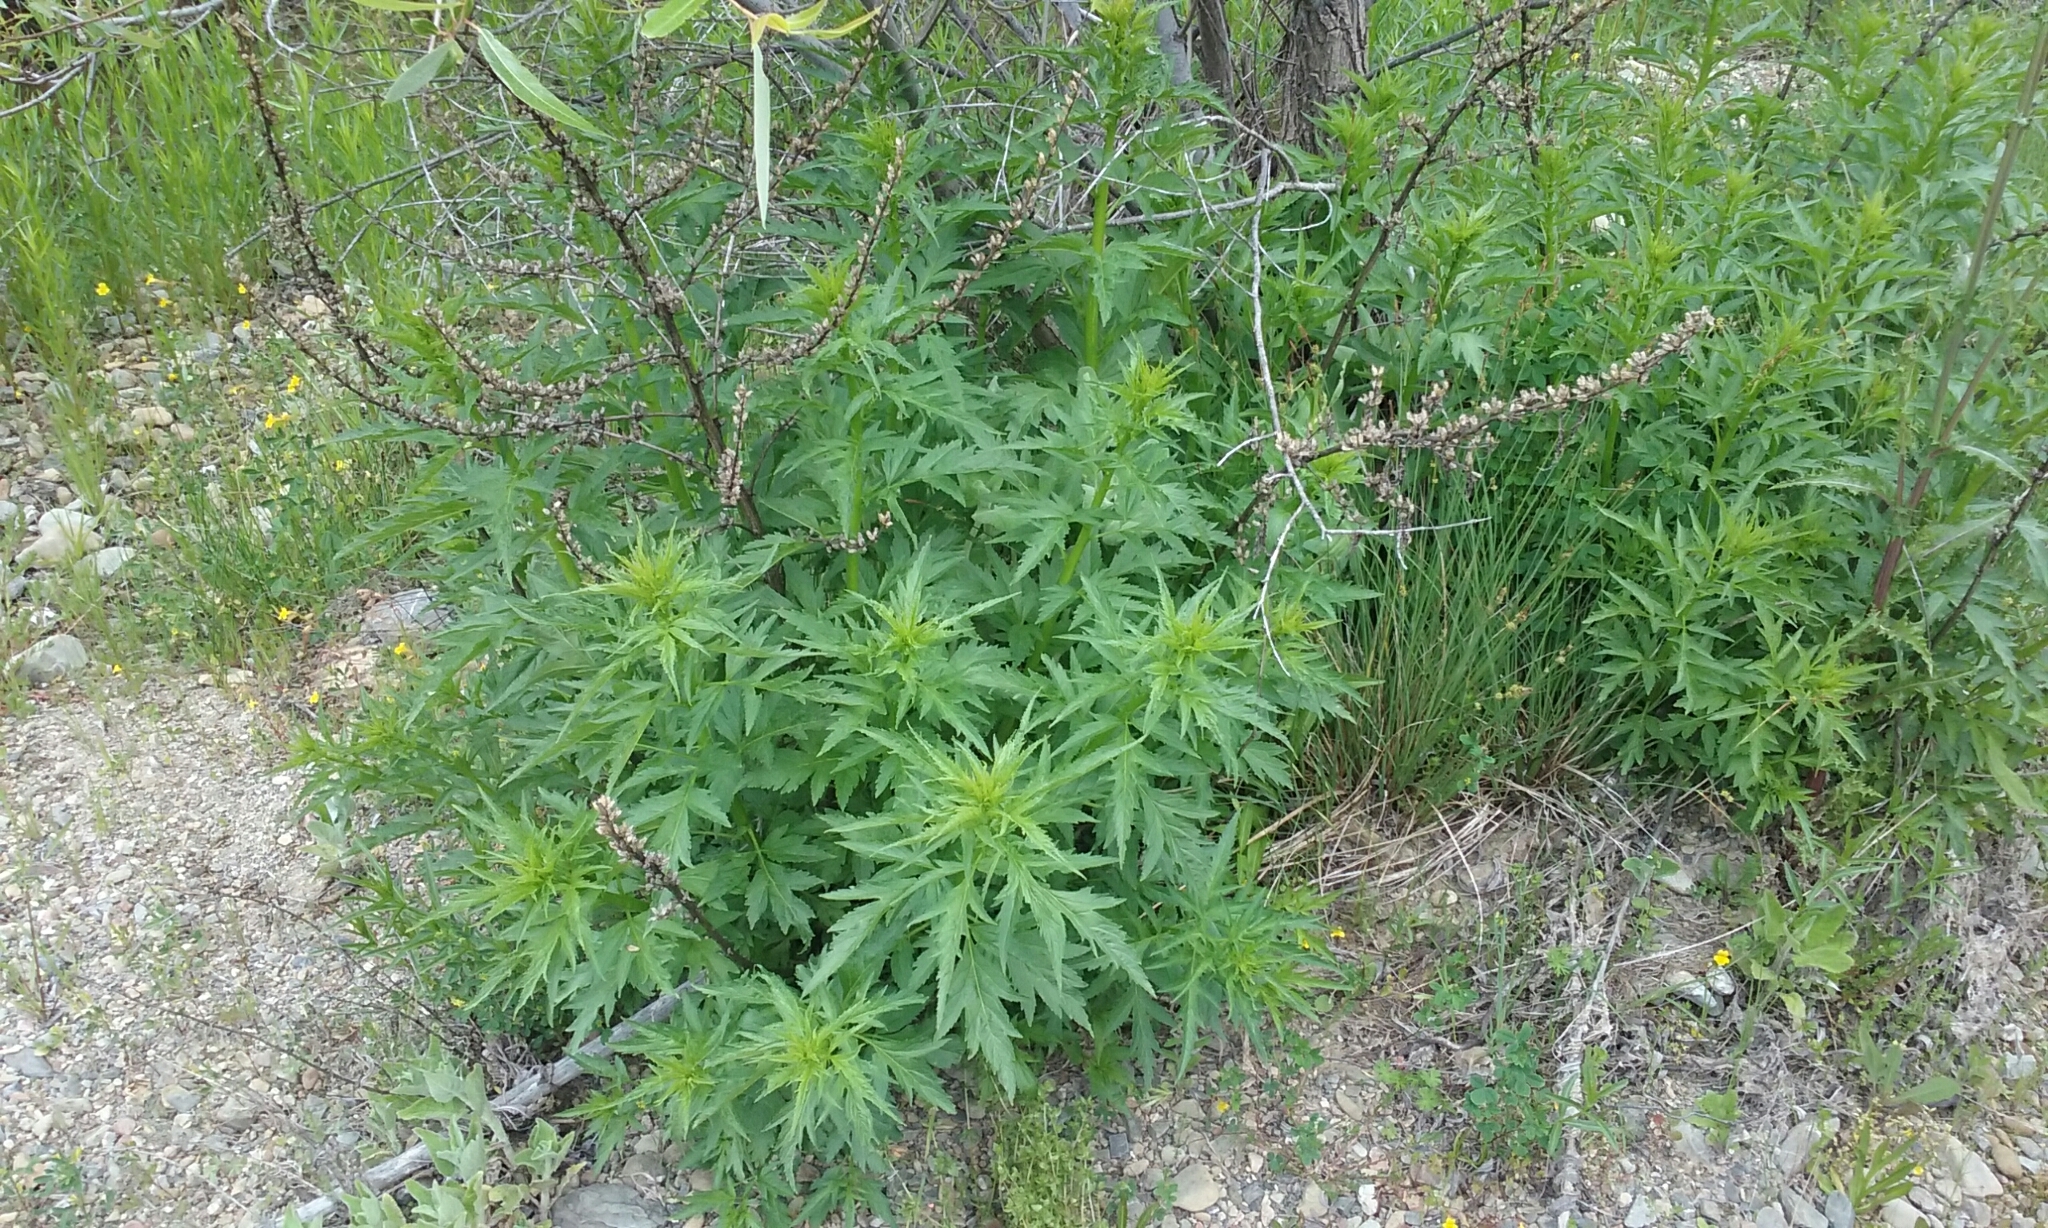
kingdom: Plantae
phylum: Tracheophyta
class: Magnoliopsida
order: Cucurbitales
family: Datiscaceae
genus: Datisca
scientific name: Datisca glomerata
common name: Durango-root
